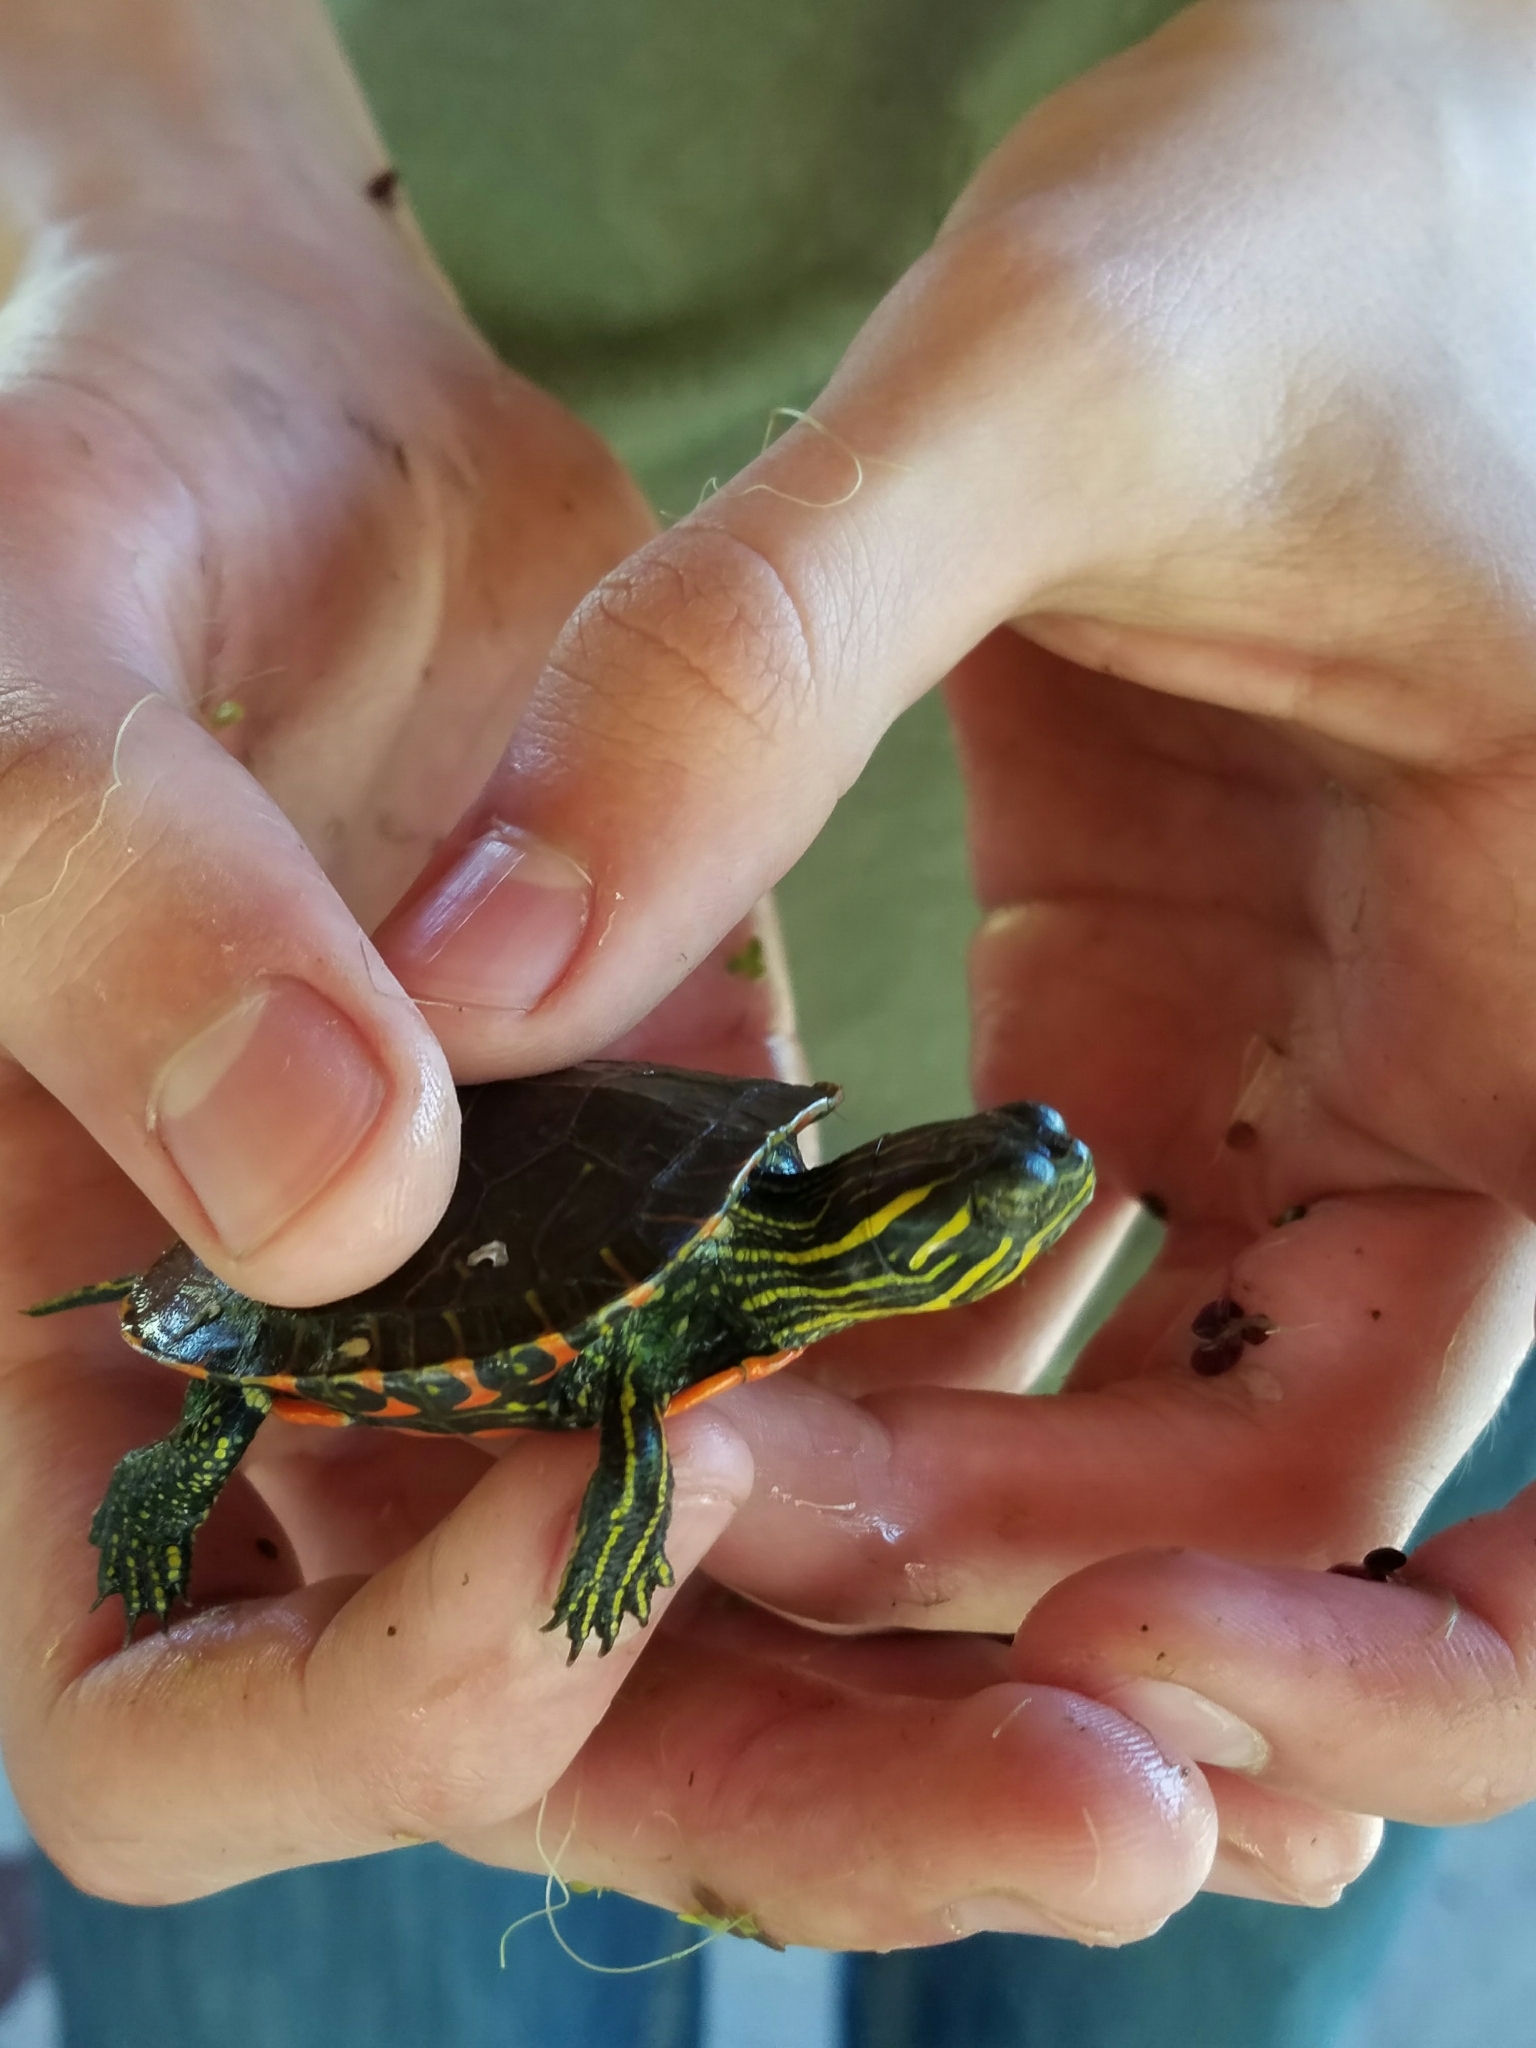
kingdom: Animalia
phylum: Chordata
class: Testudines
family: Emydidae
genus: Chrysemys
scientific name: Chrysemys picta
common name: Painted turtle
